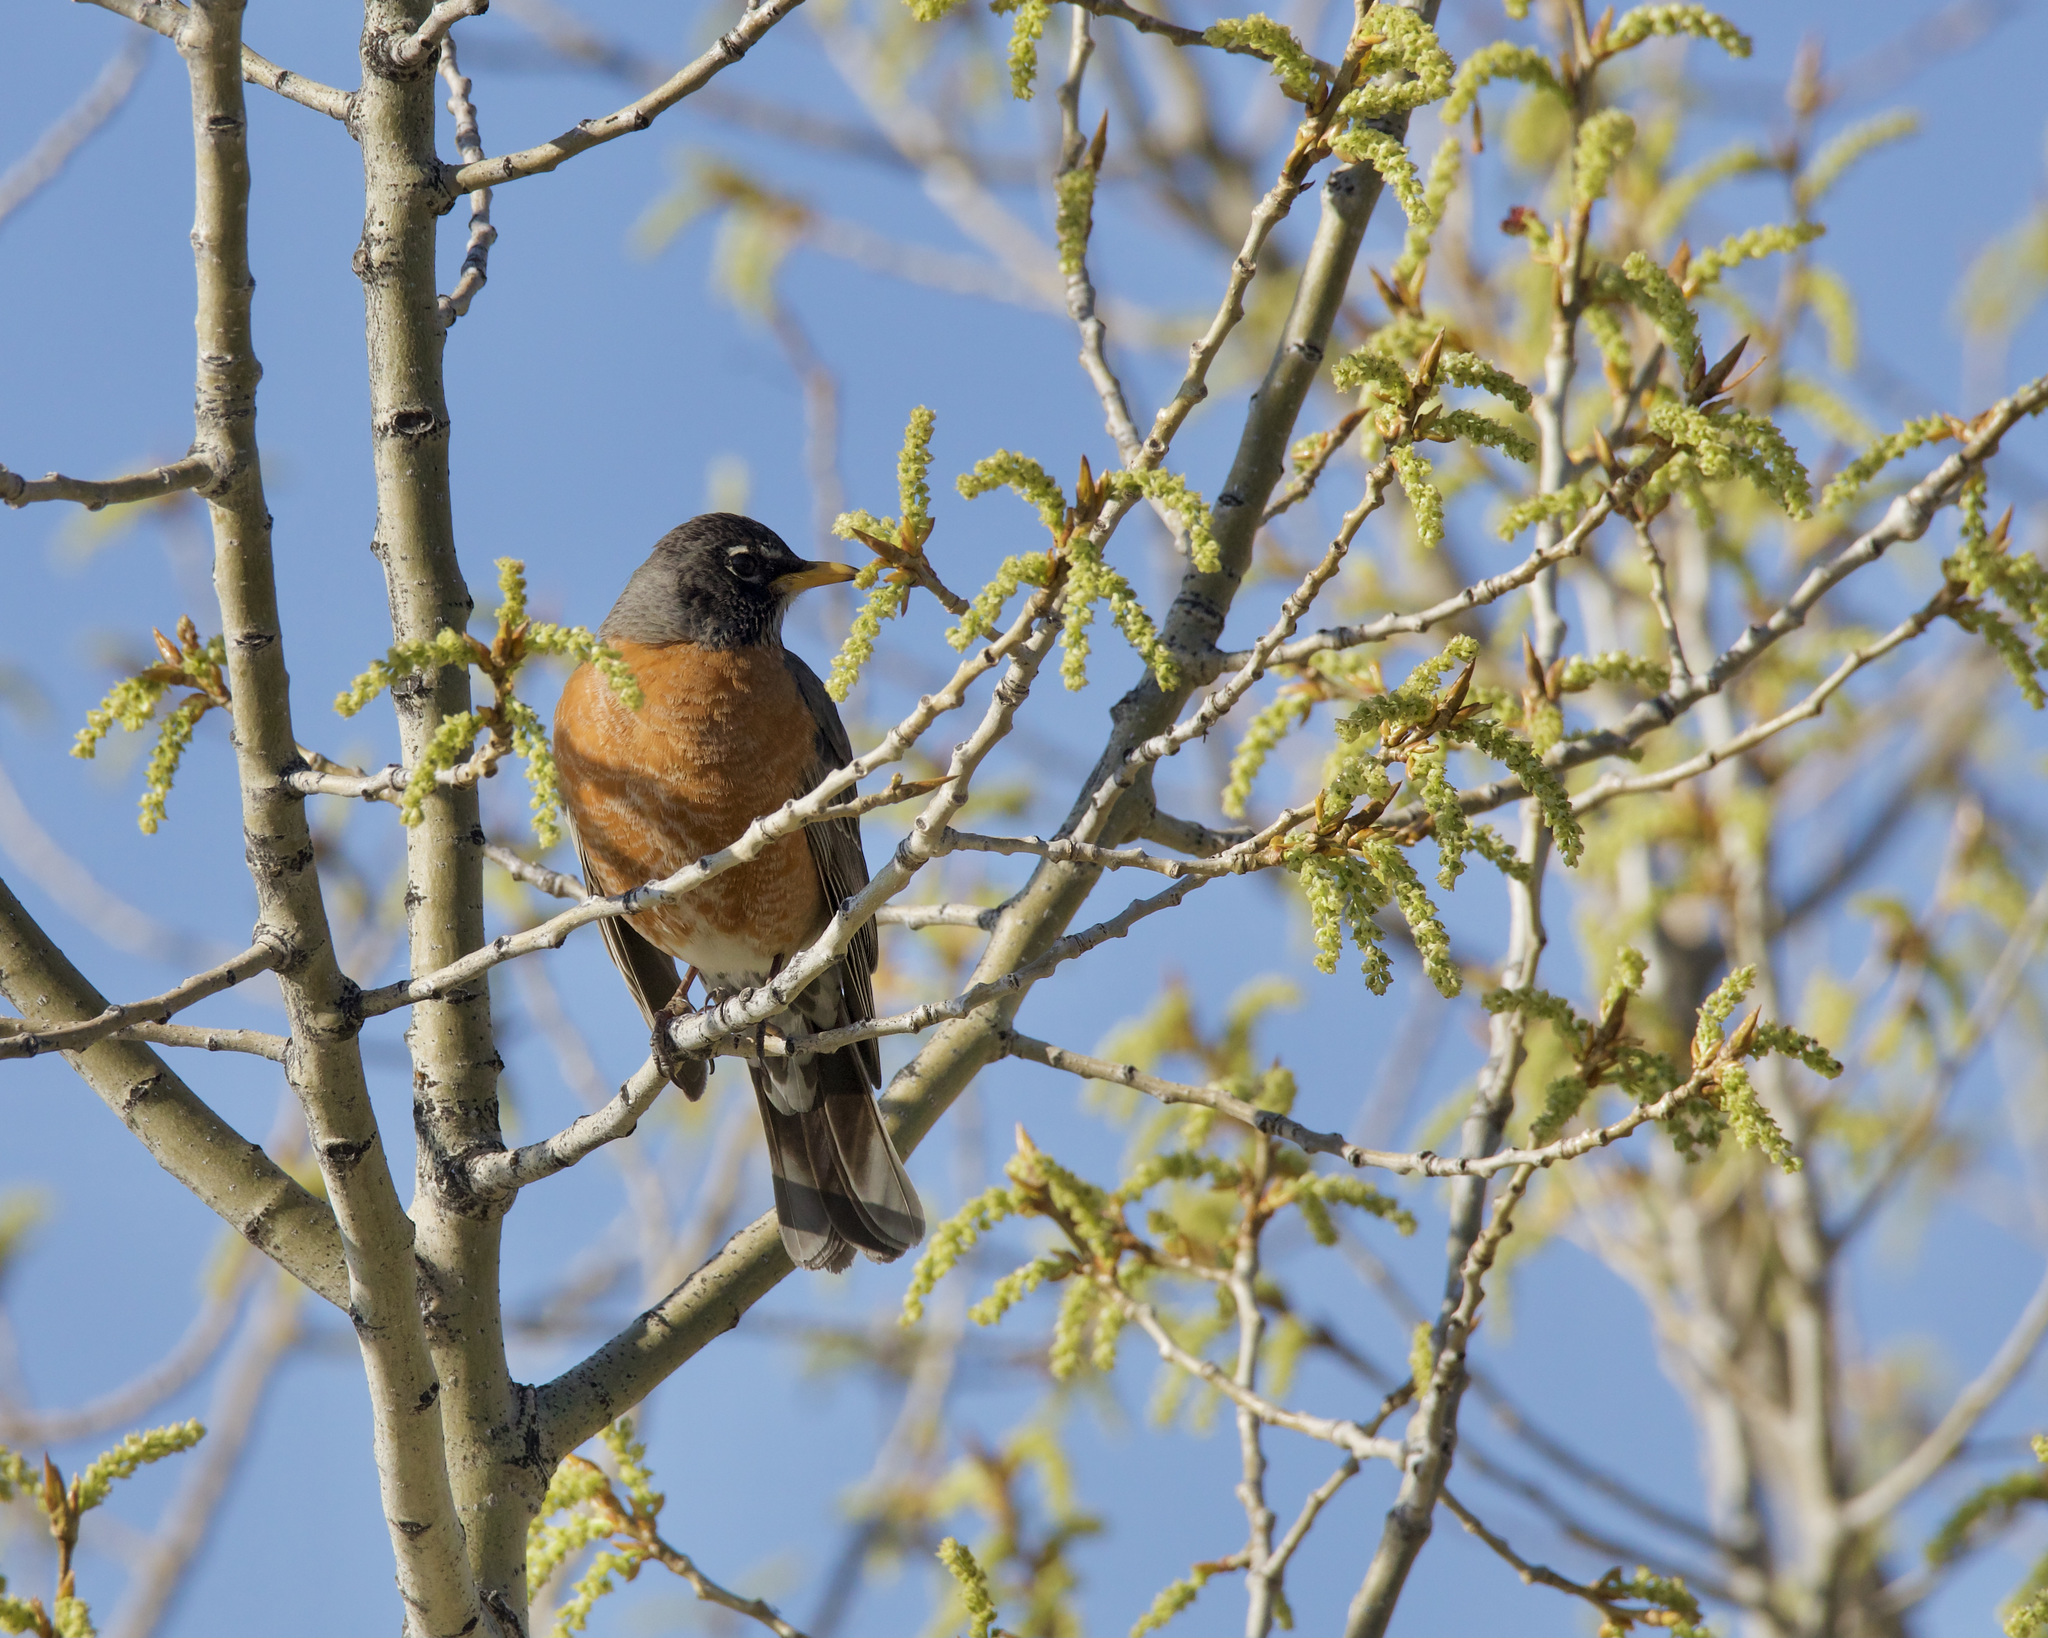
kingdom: Animalia
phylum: Chordata
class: Aves
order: Passeriformes
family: Turdidae
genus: Turdus
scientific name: Turdus migratorius
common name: American robin
